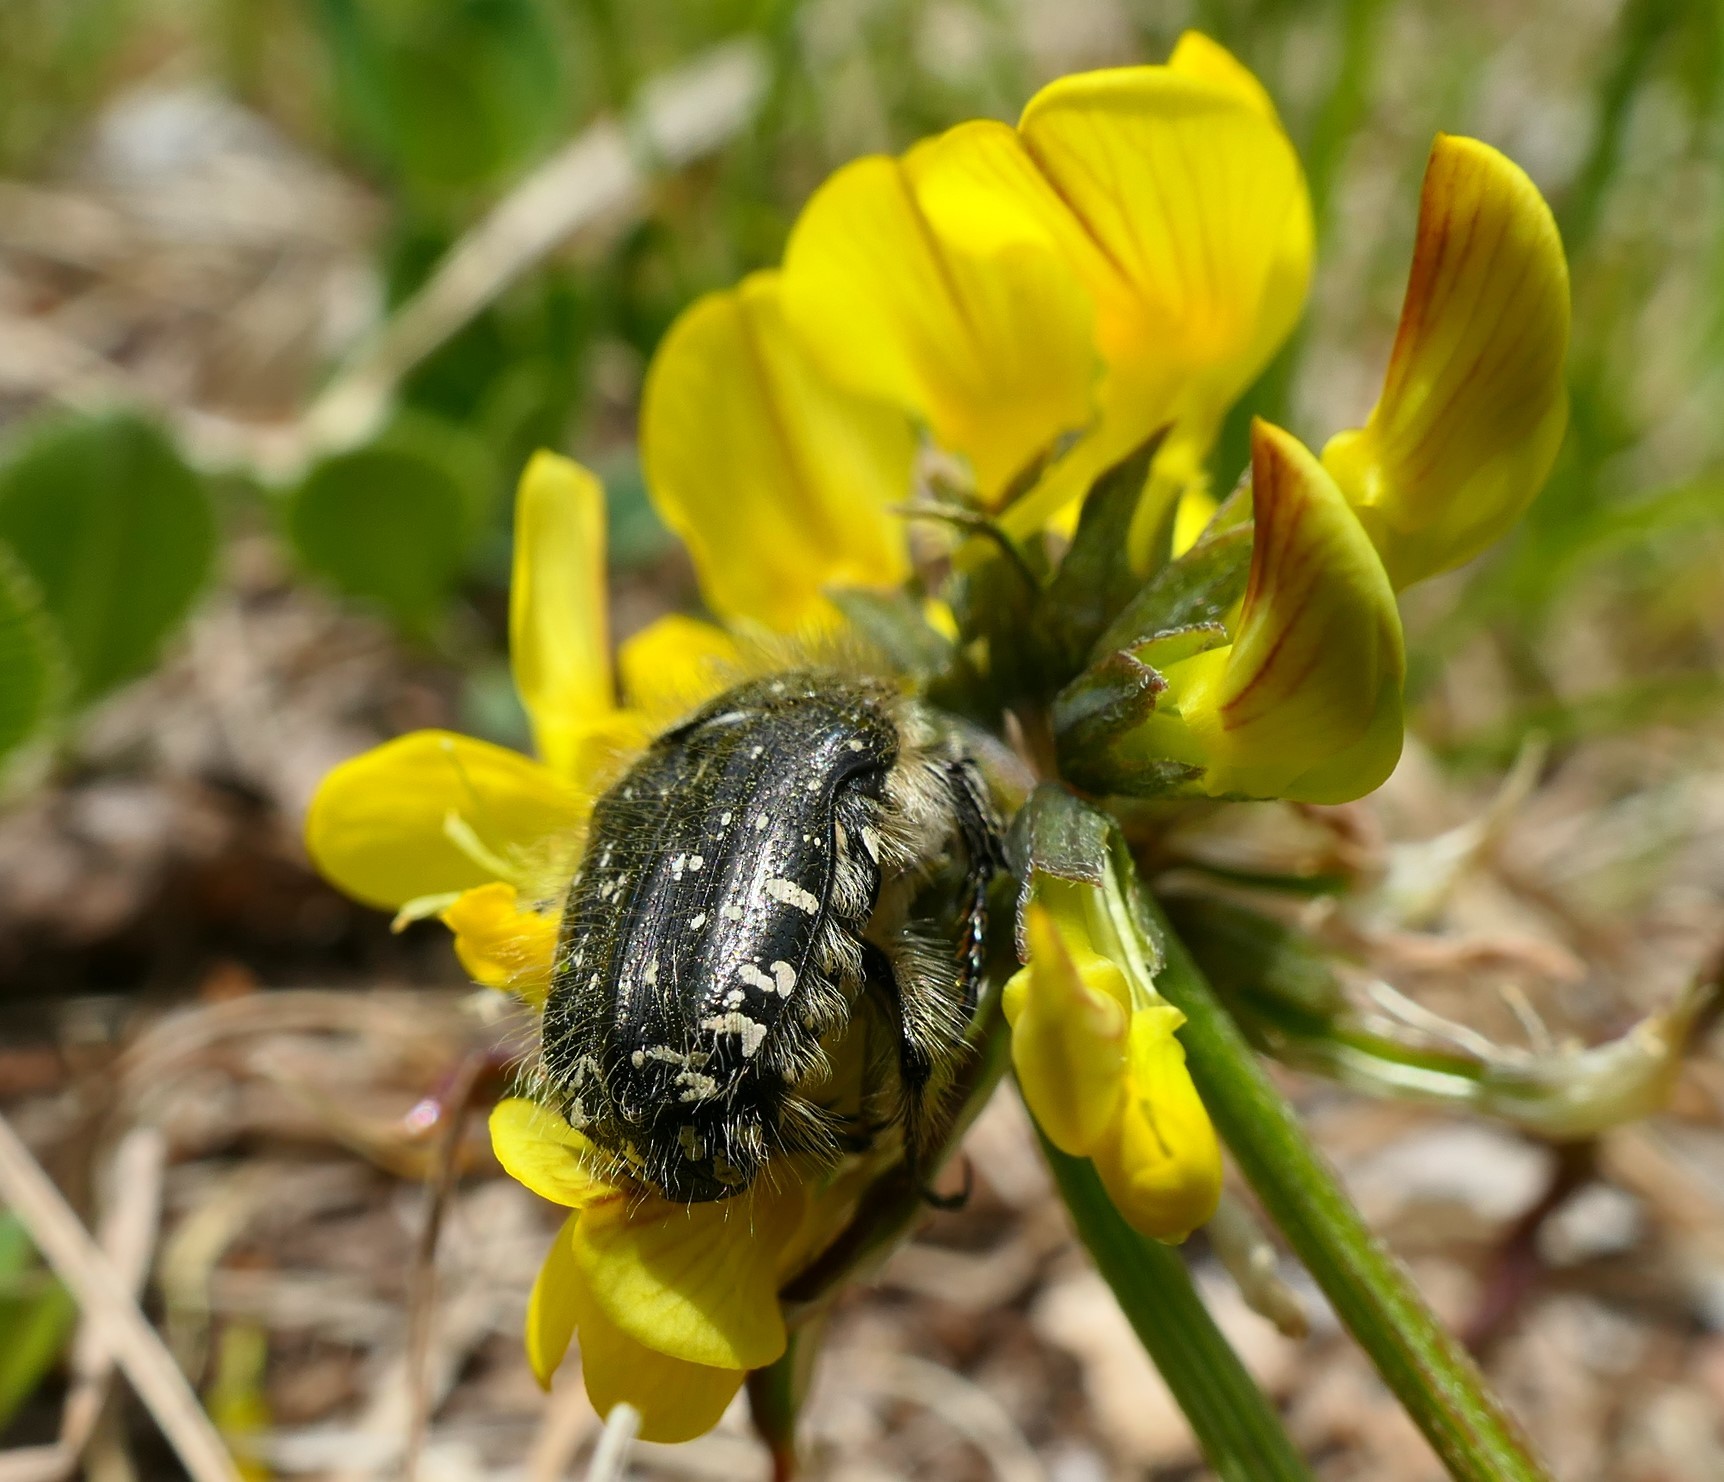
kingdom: Animalia
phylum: Arthropoda
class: Insecta
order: Coleoptera
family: Scarabaeidae
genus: Oxythyrea
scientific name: Oxythyrea funesta
